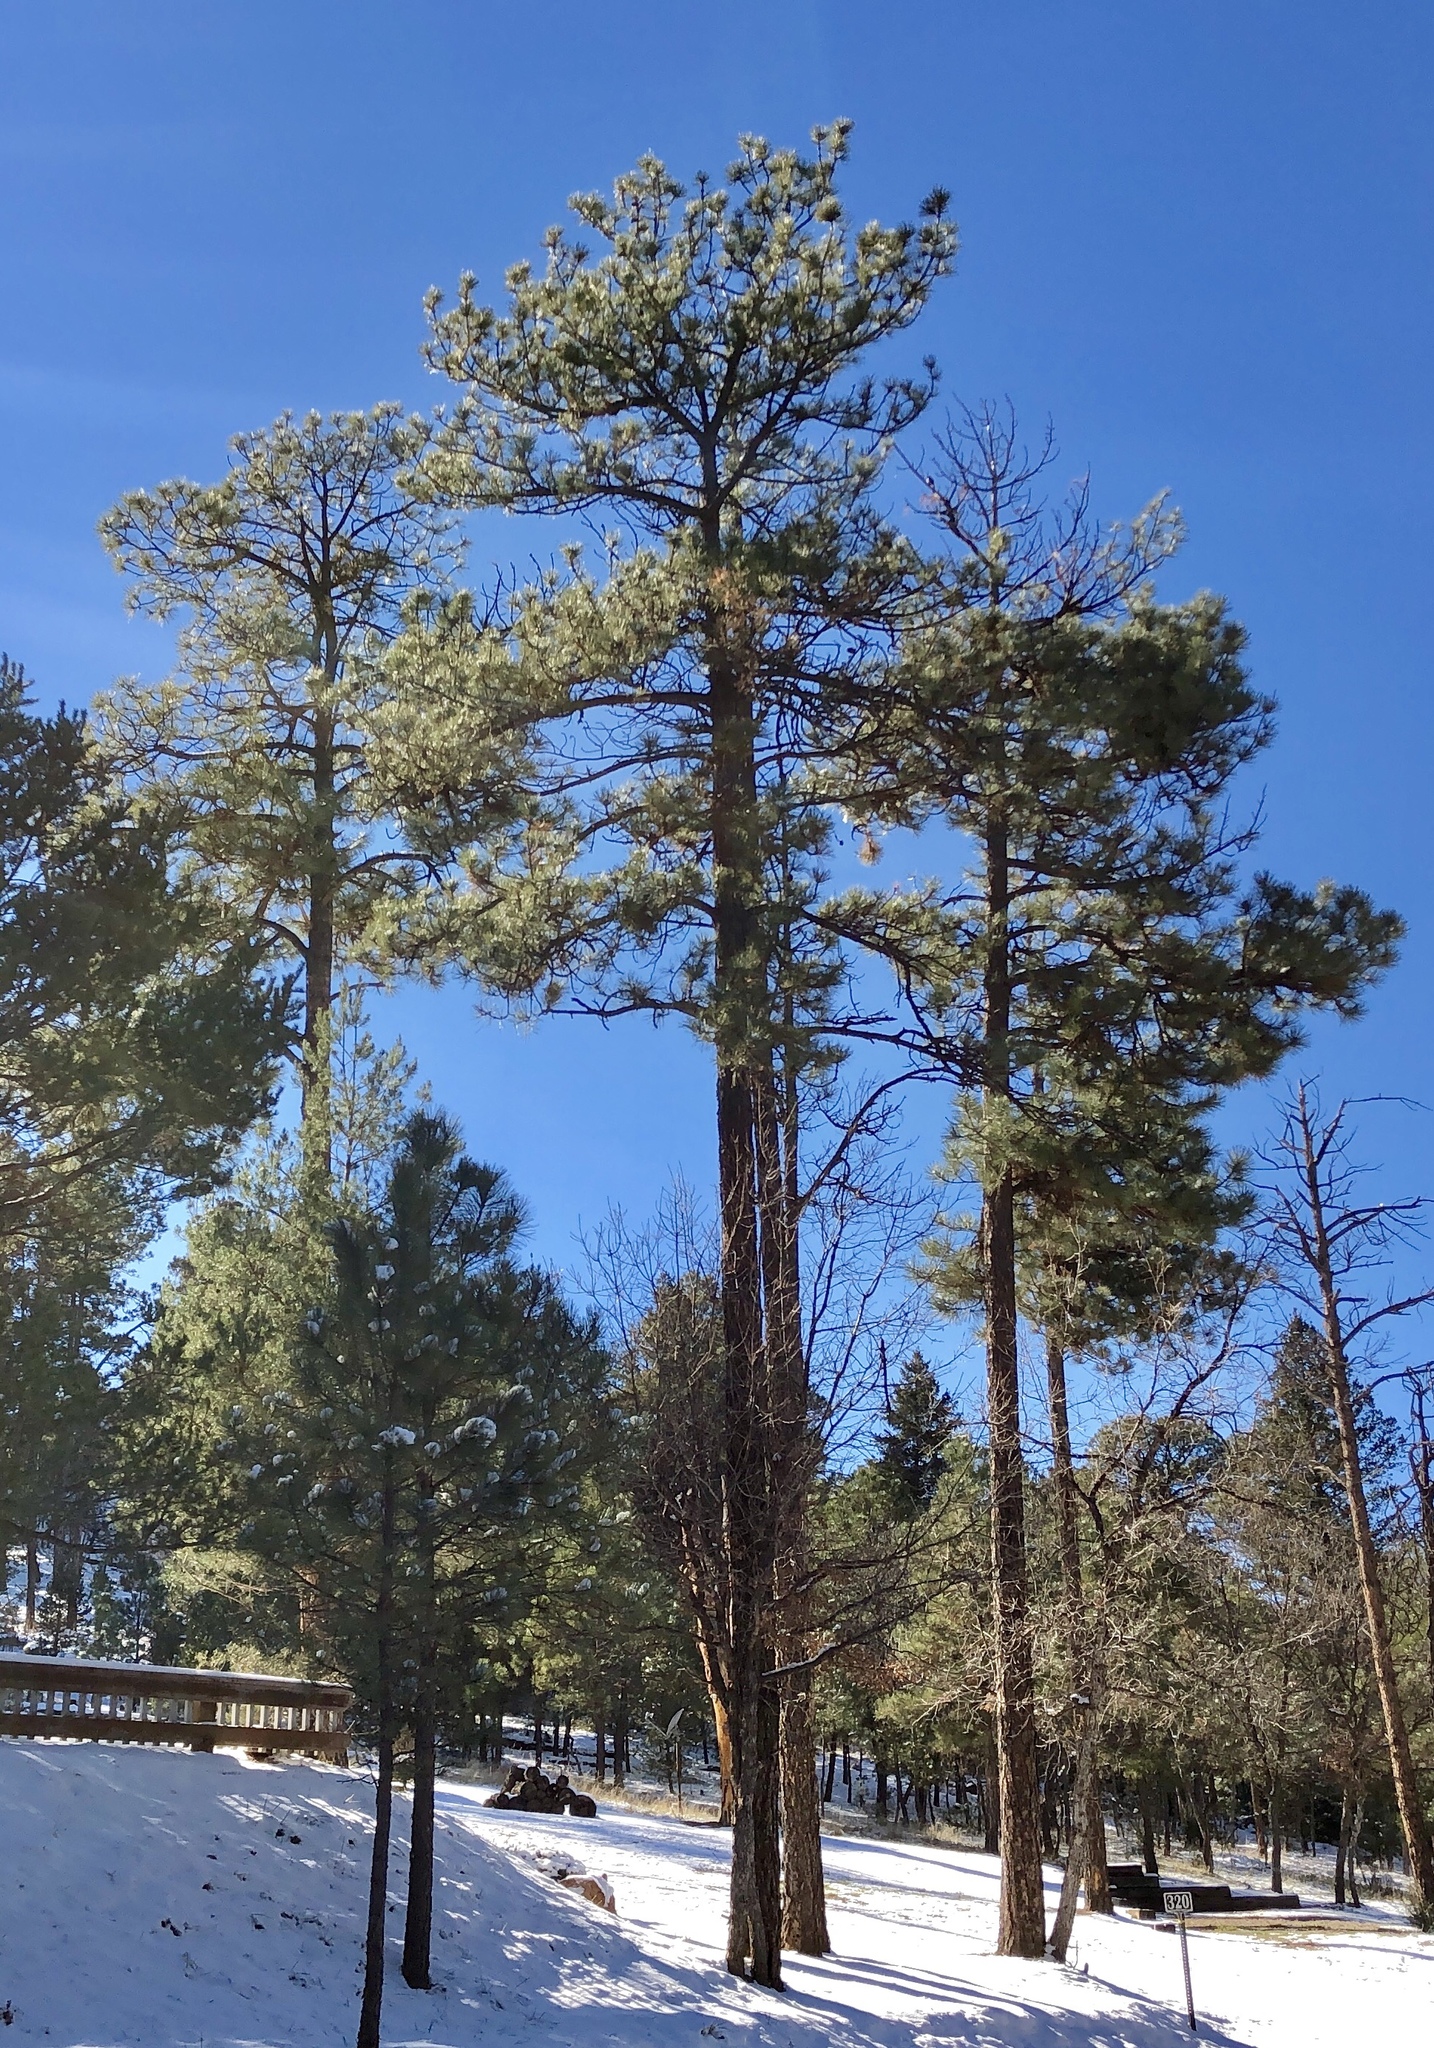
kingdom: Plantae
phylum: Tracheophyta
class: Pinopsida
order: Pinales
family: Pinaceae
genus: Pinus
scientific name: Pinus ponderosa
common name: Western yellow-pine
